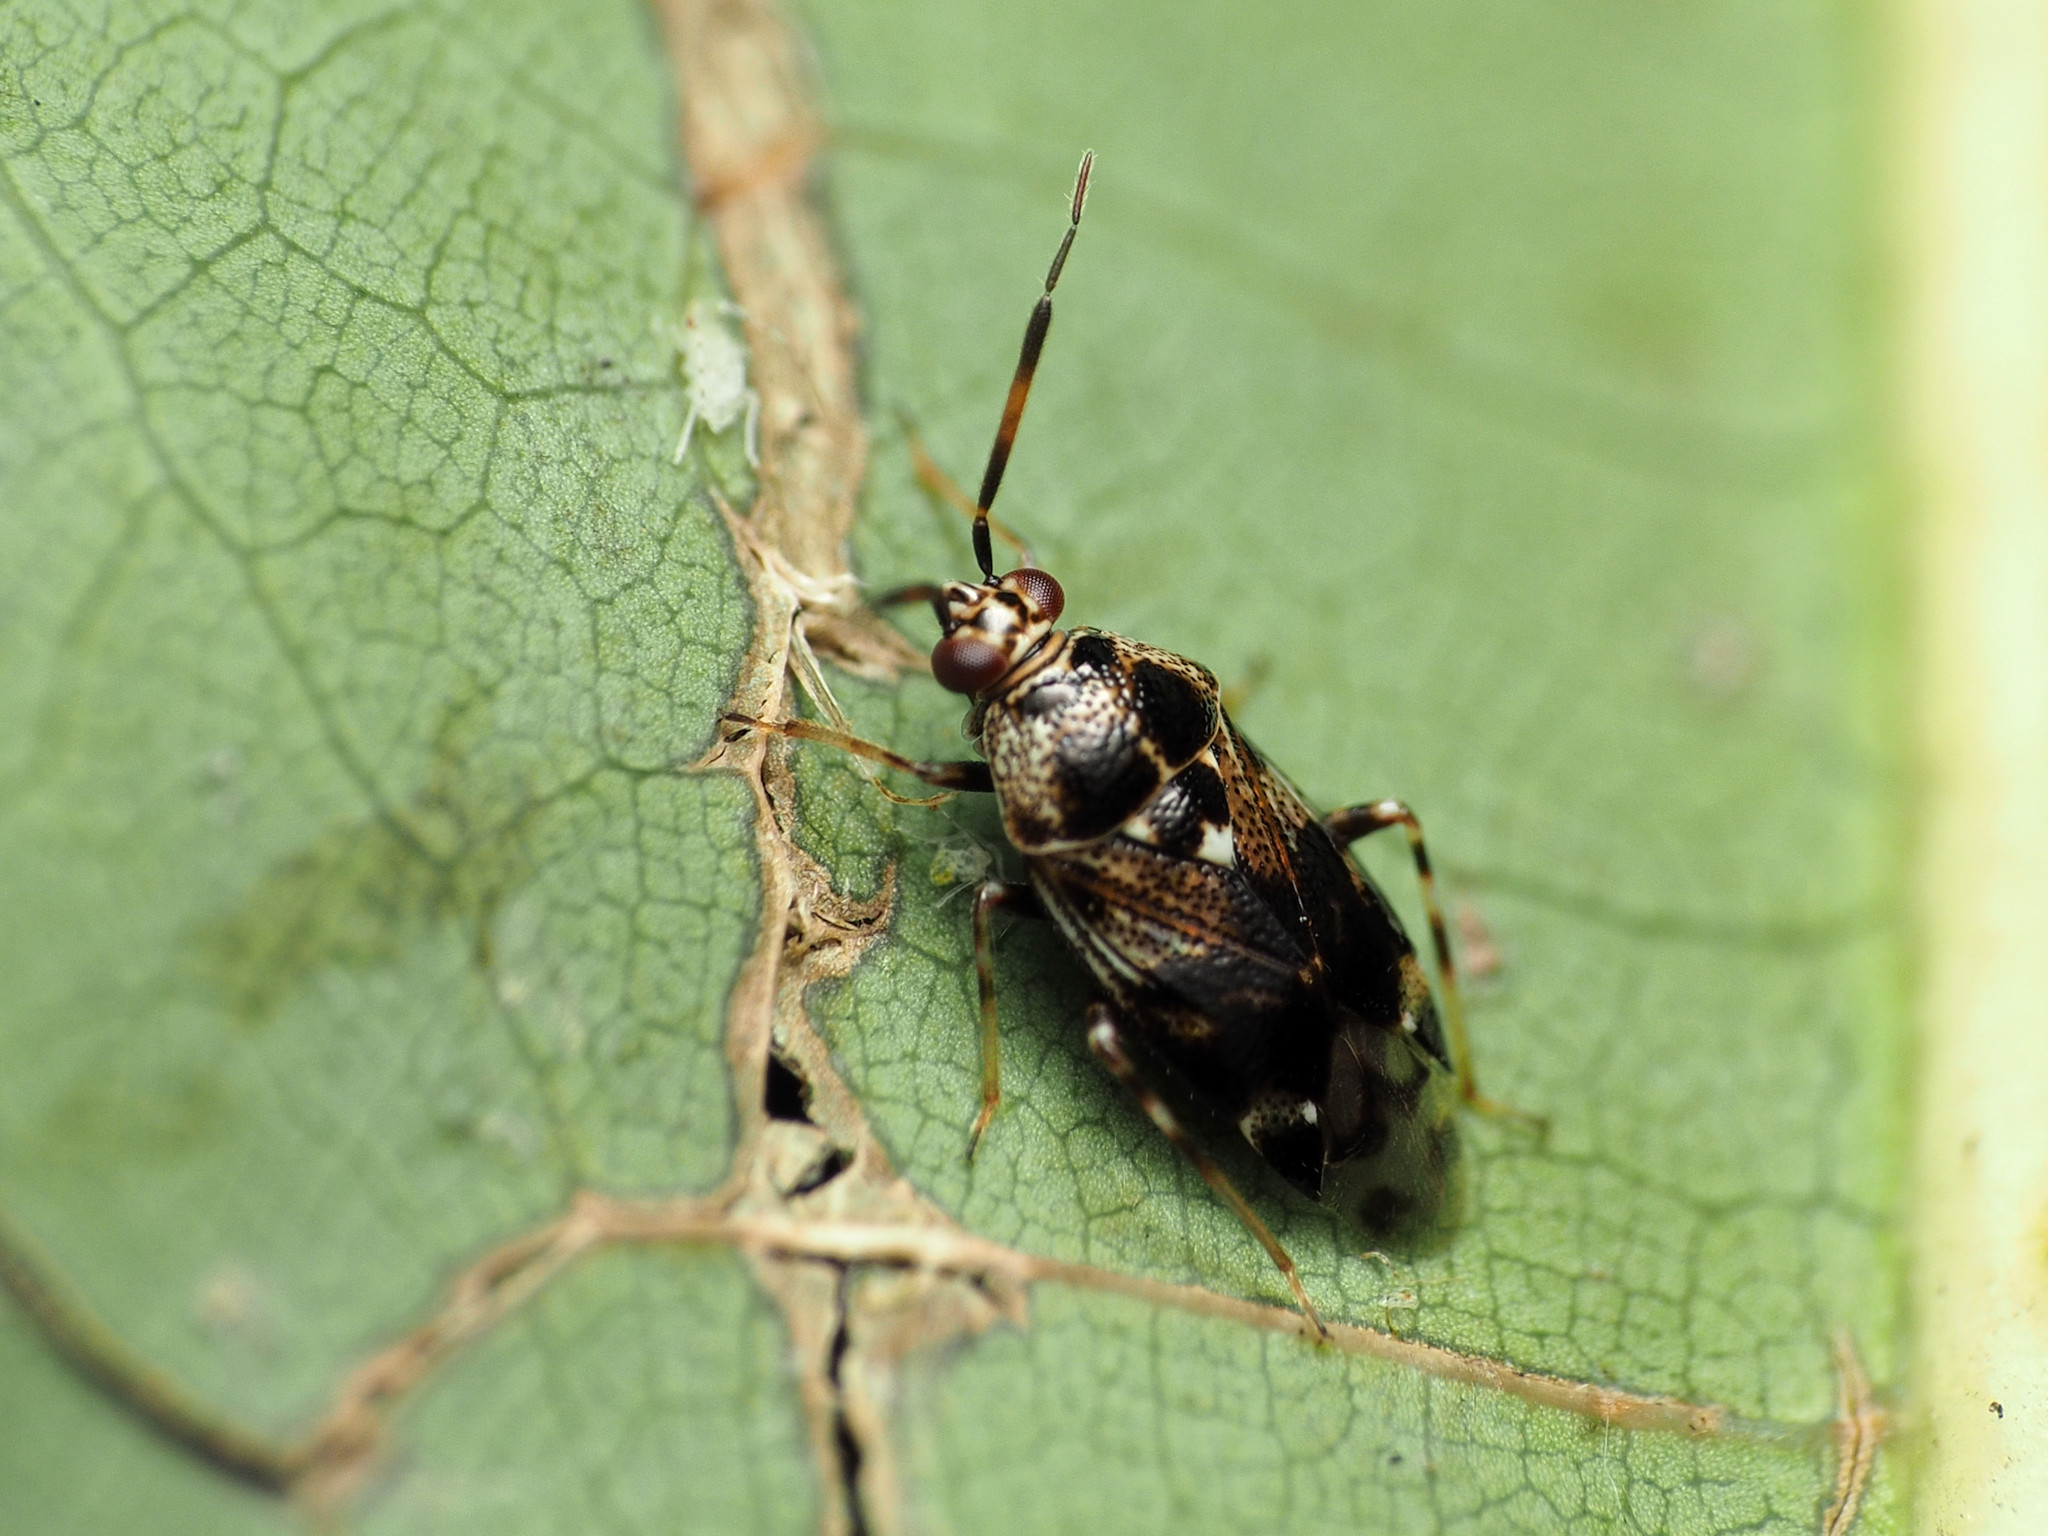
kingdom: Animalia
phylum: Arthropoda
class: Insecta
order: Hemiptera
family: Miridae
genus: Deraeocoris
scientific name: Deraeocoris nebulosus
